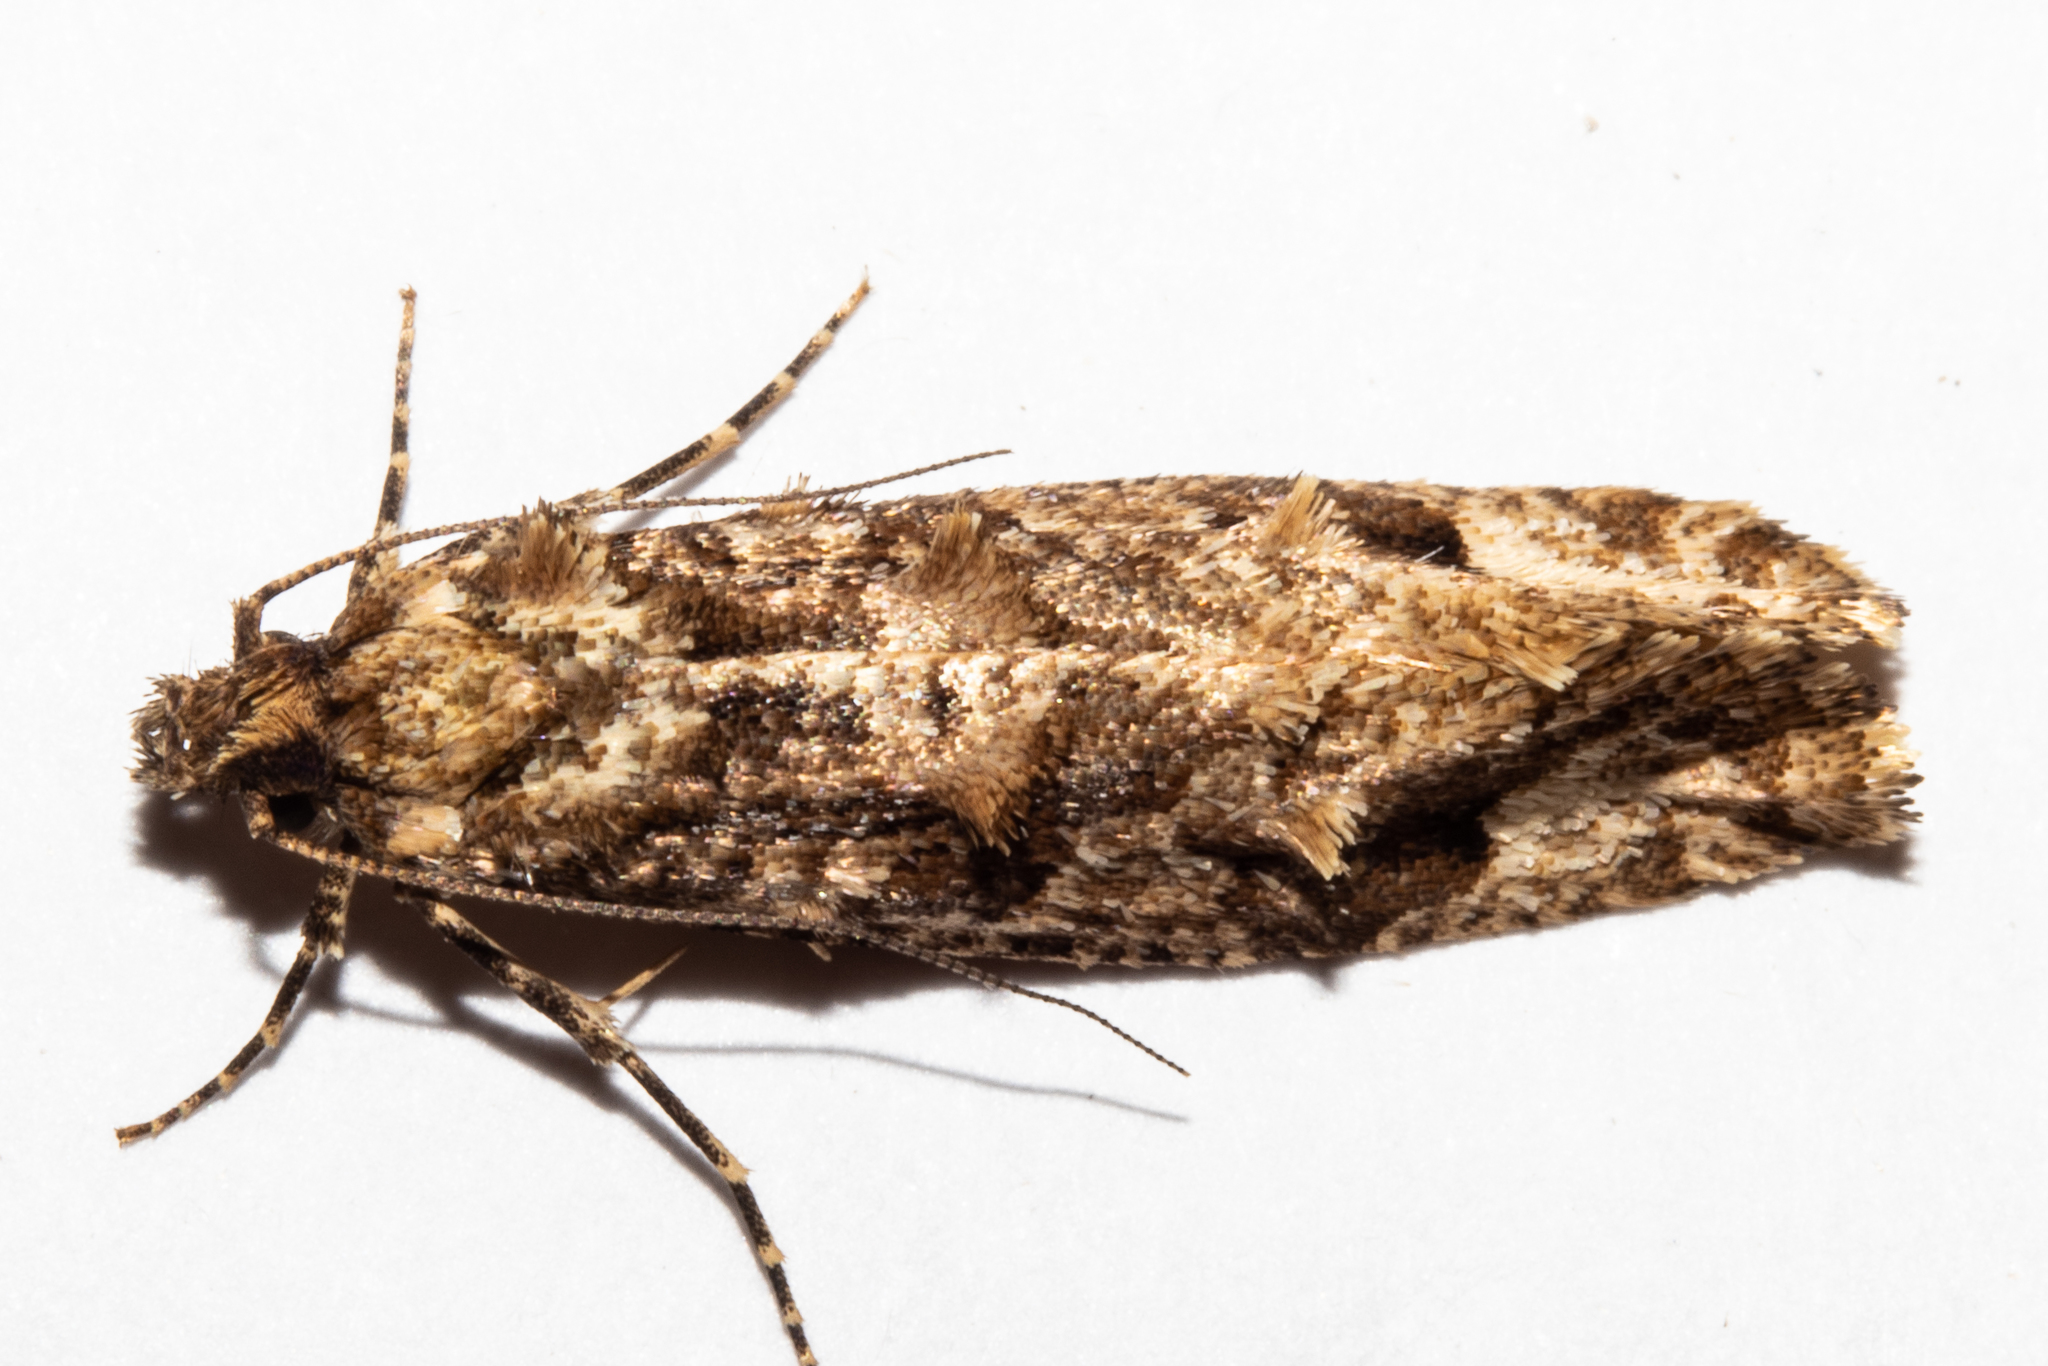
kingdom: Animalia
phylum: Arthropoda
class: Insecta
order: Lepidoptera
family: Tineidae
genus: Lysiphragma
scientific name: Lysiphragma epixyla
